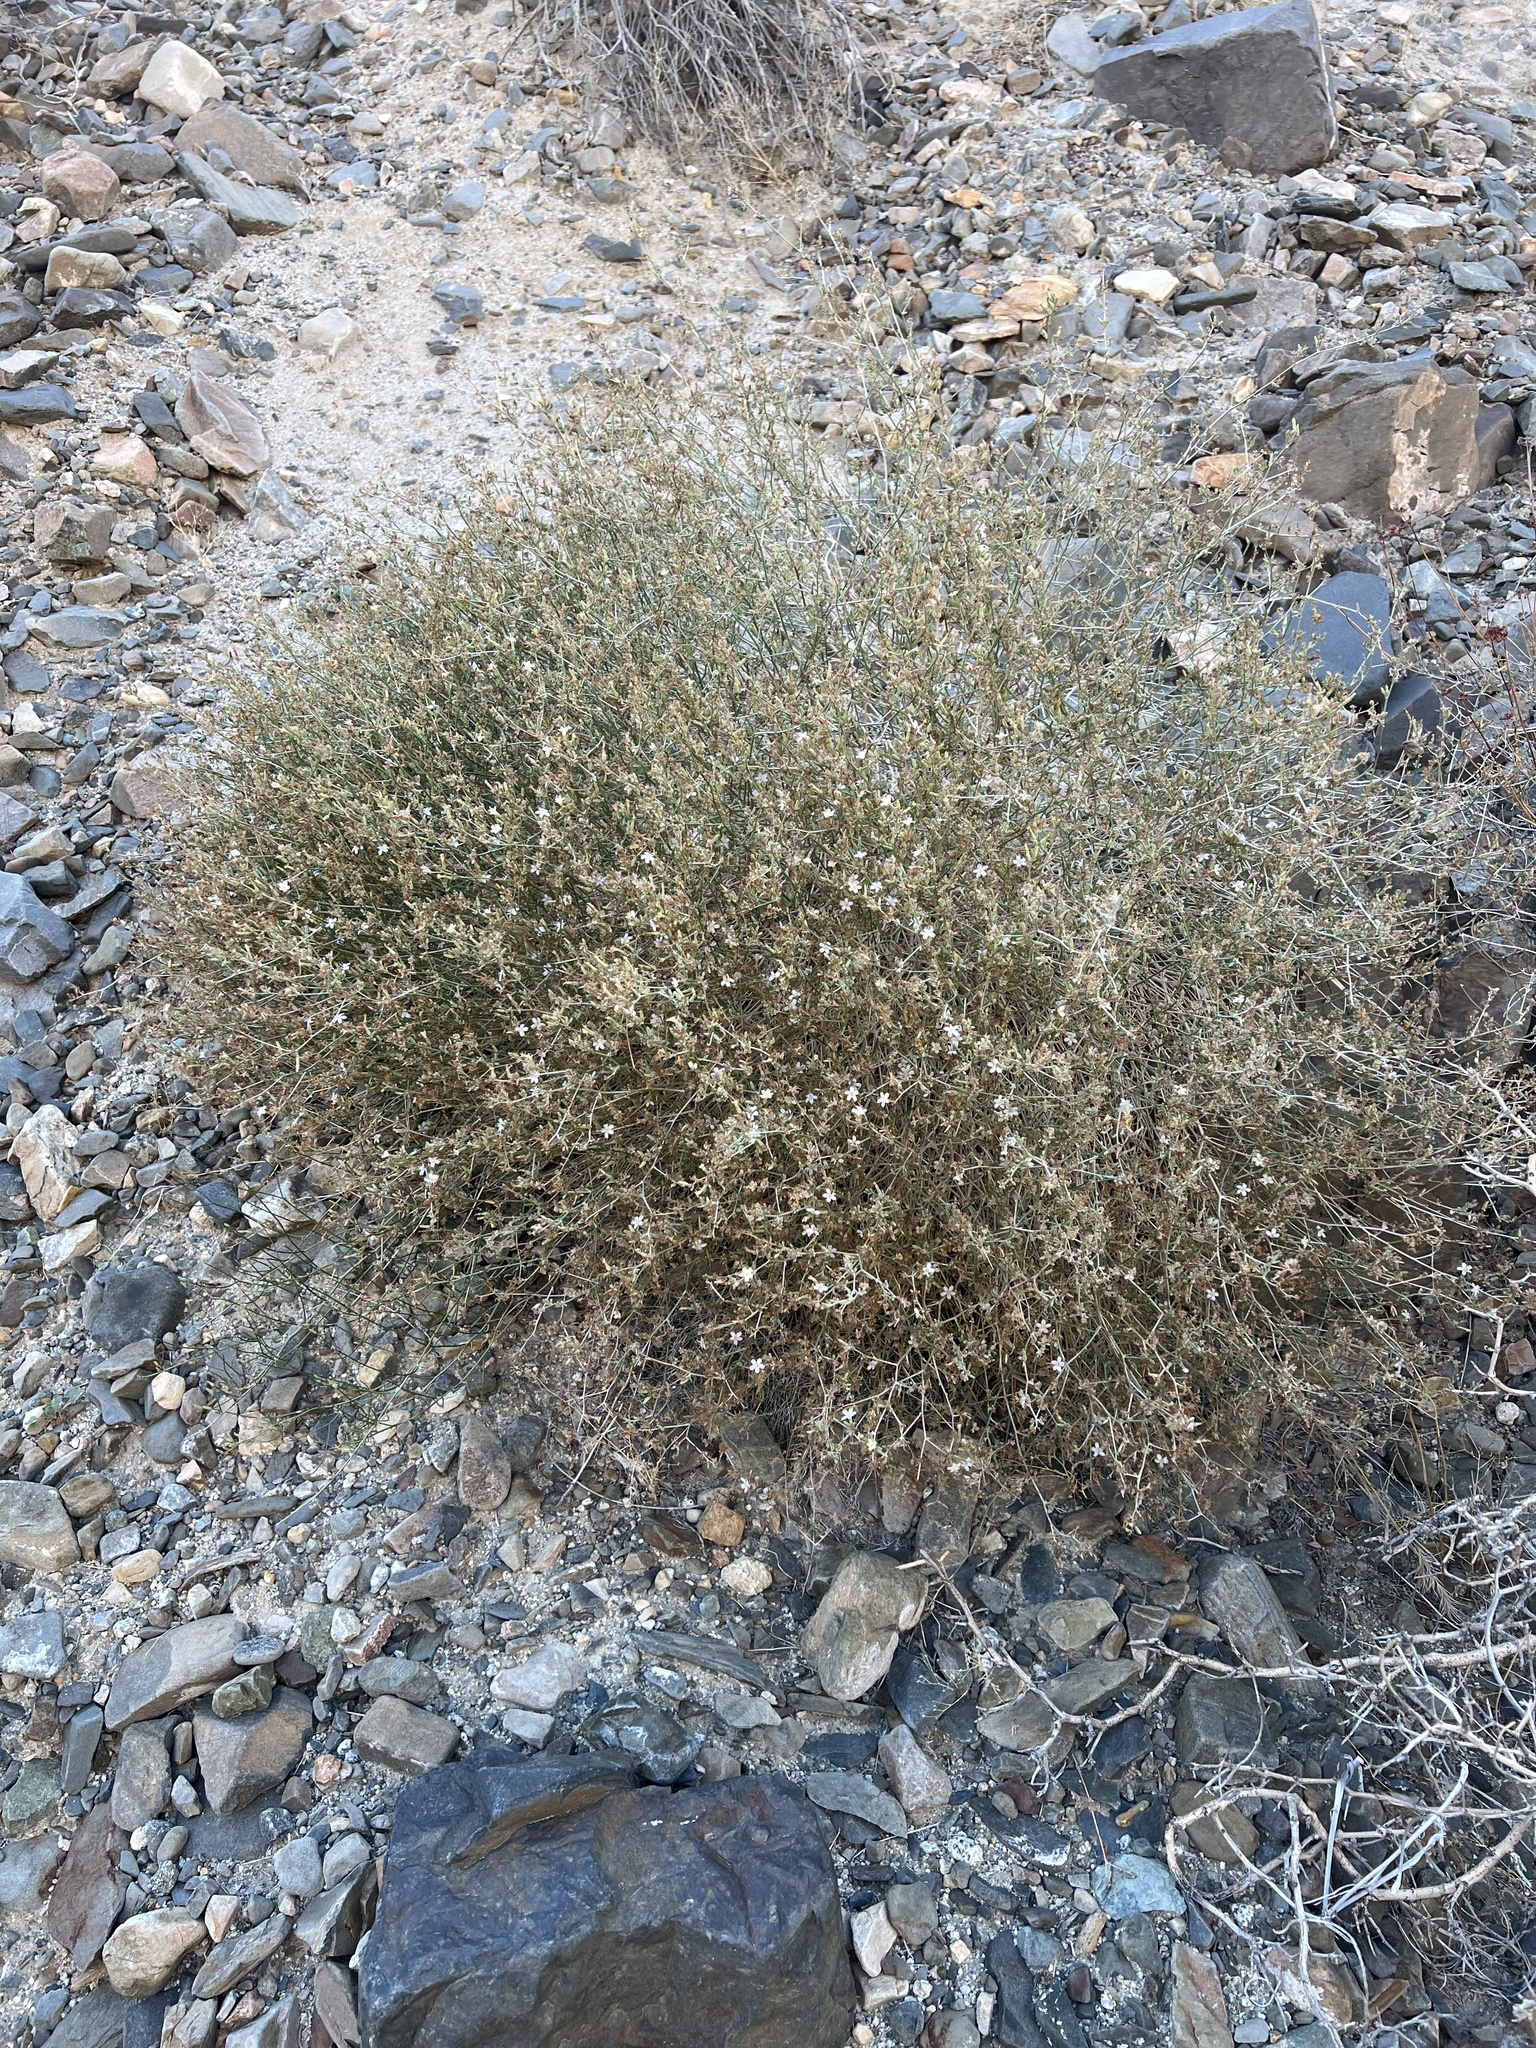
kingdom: Plantae
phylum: Tracheophyta
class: Magnoliopsida
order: Asterales
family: Asteraceae
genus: Stephanomeria
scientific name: Stephanomeria pauciflora
